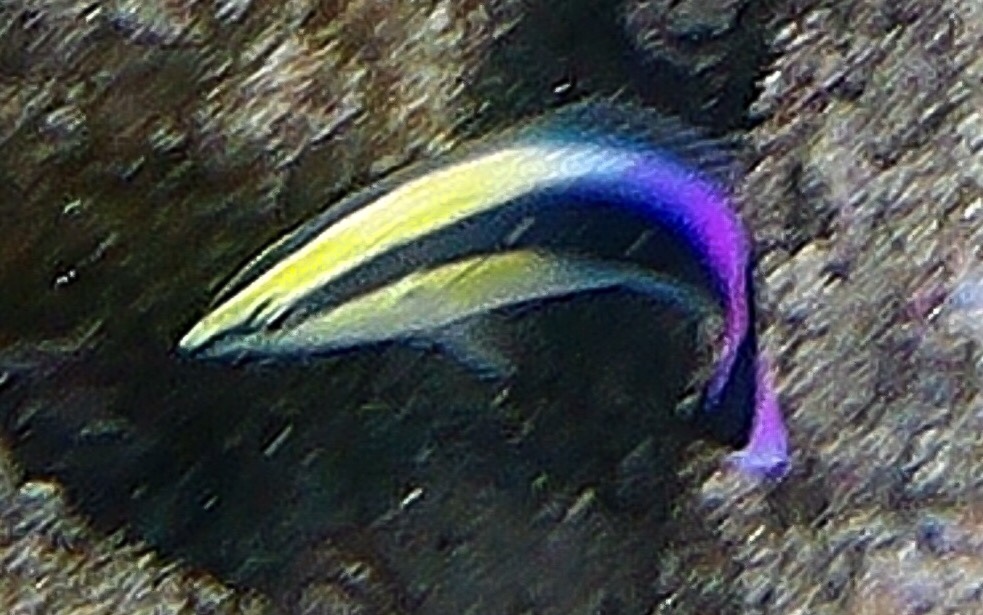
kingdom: Animalia
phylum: Chordata
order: Perciformes
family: Labridae
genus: Labroides
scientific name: Labroides phthirophagus
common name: Cleaner wrasse
